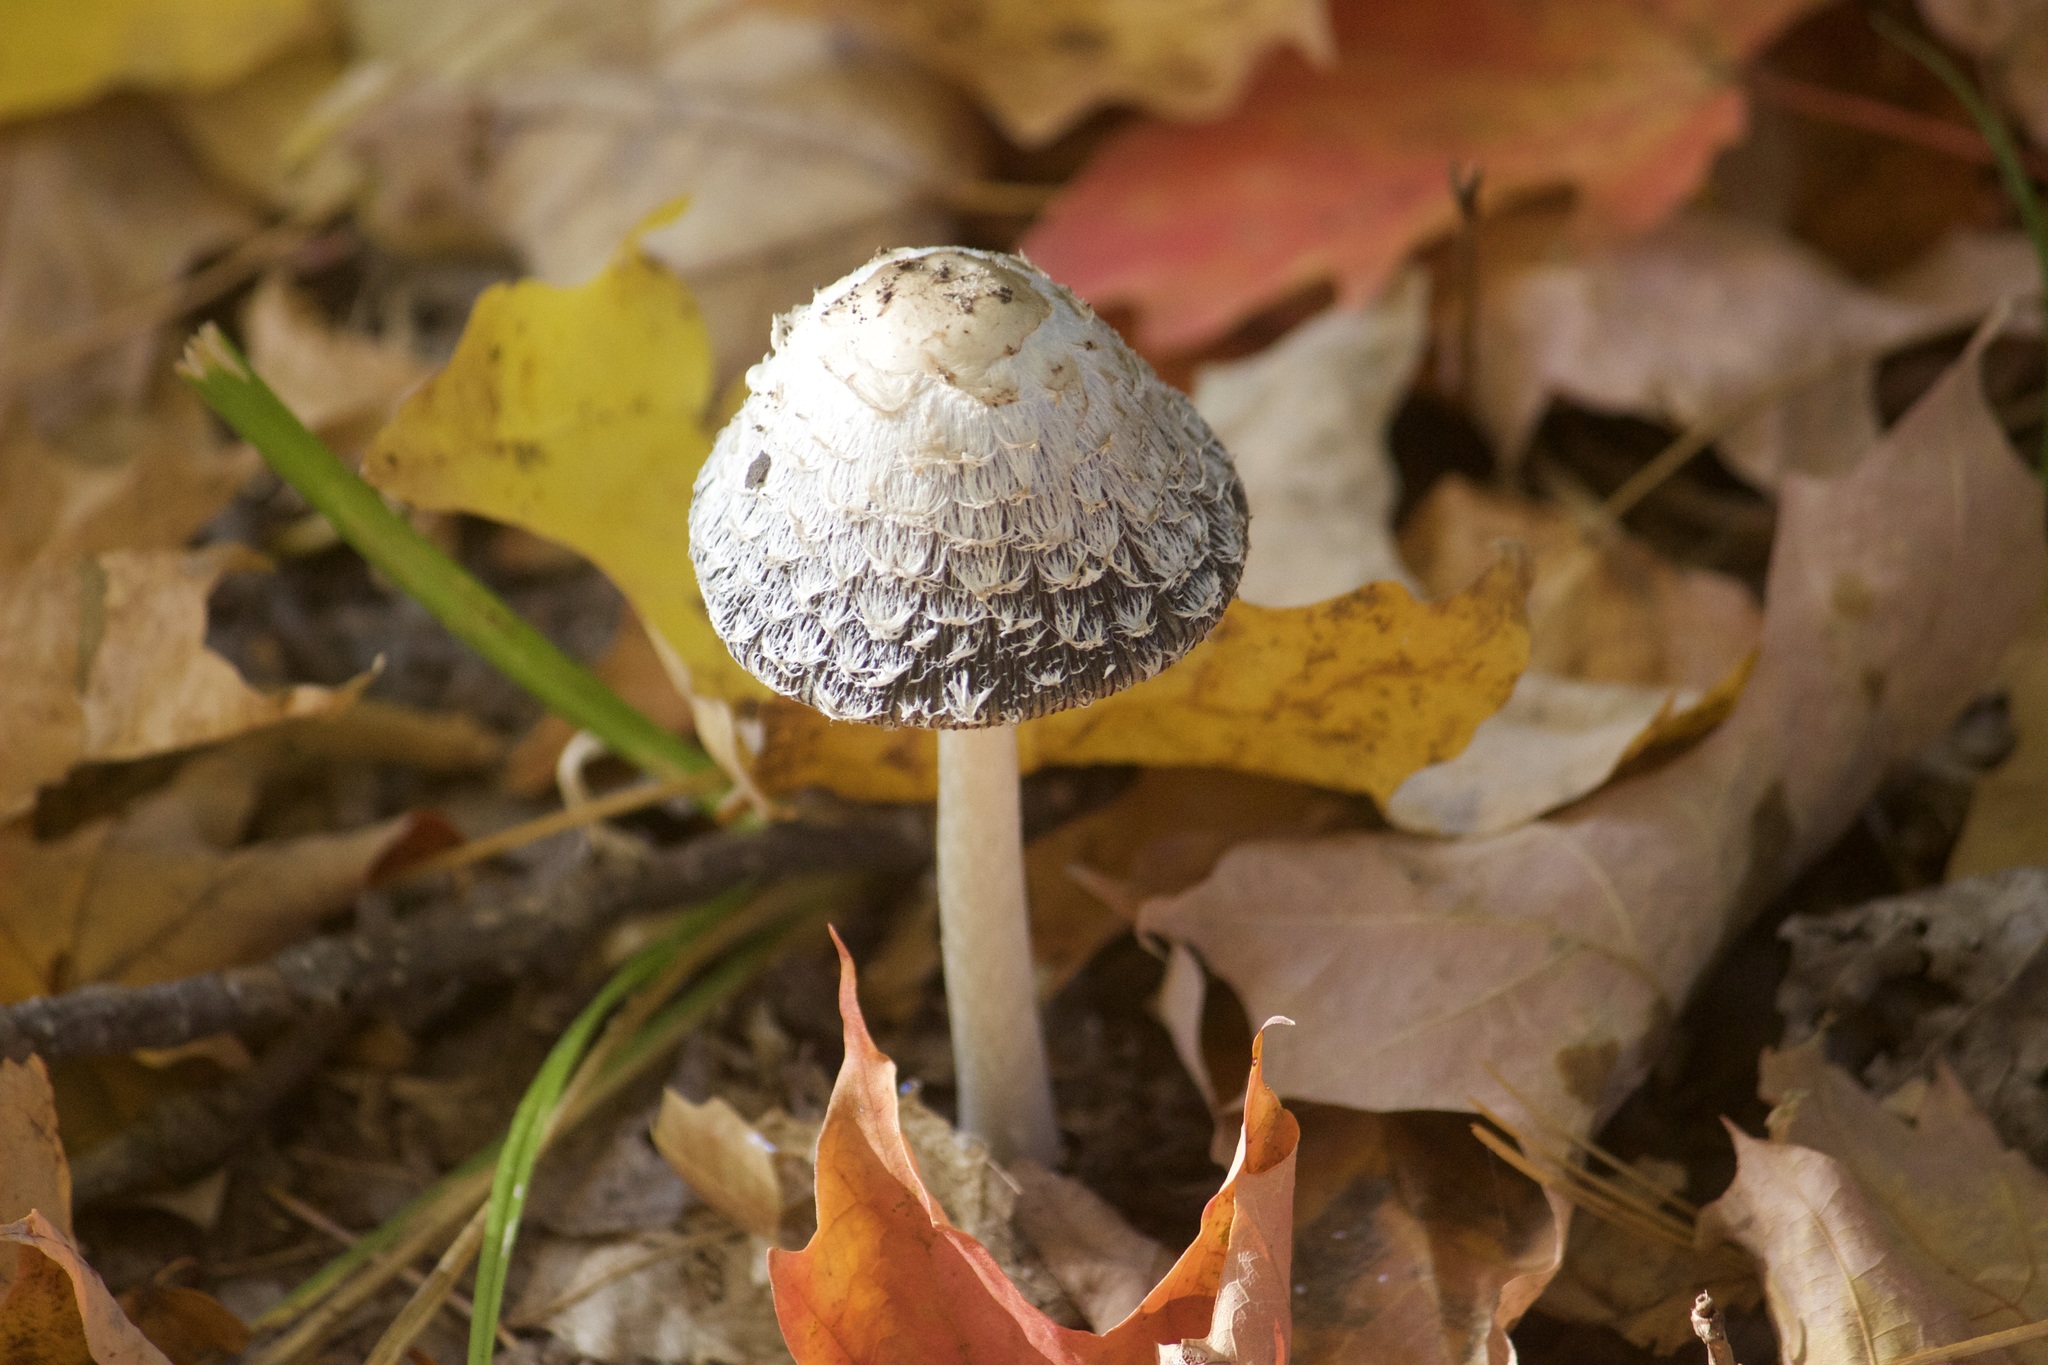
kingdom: Fungi
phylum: Basidiomycota
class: Agaricomycetes
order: Agaricales
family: Agaricaceae
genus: Coprinus
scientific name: Coprinus comatus
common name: Lawyer's wig
